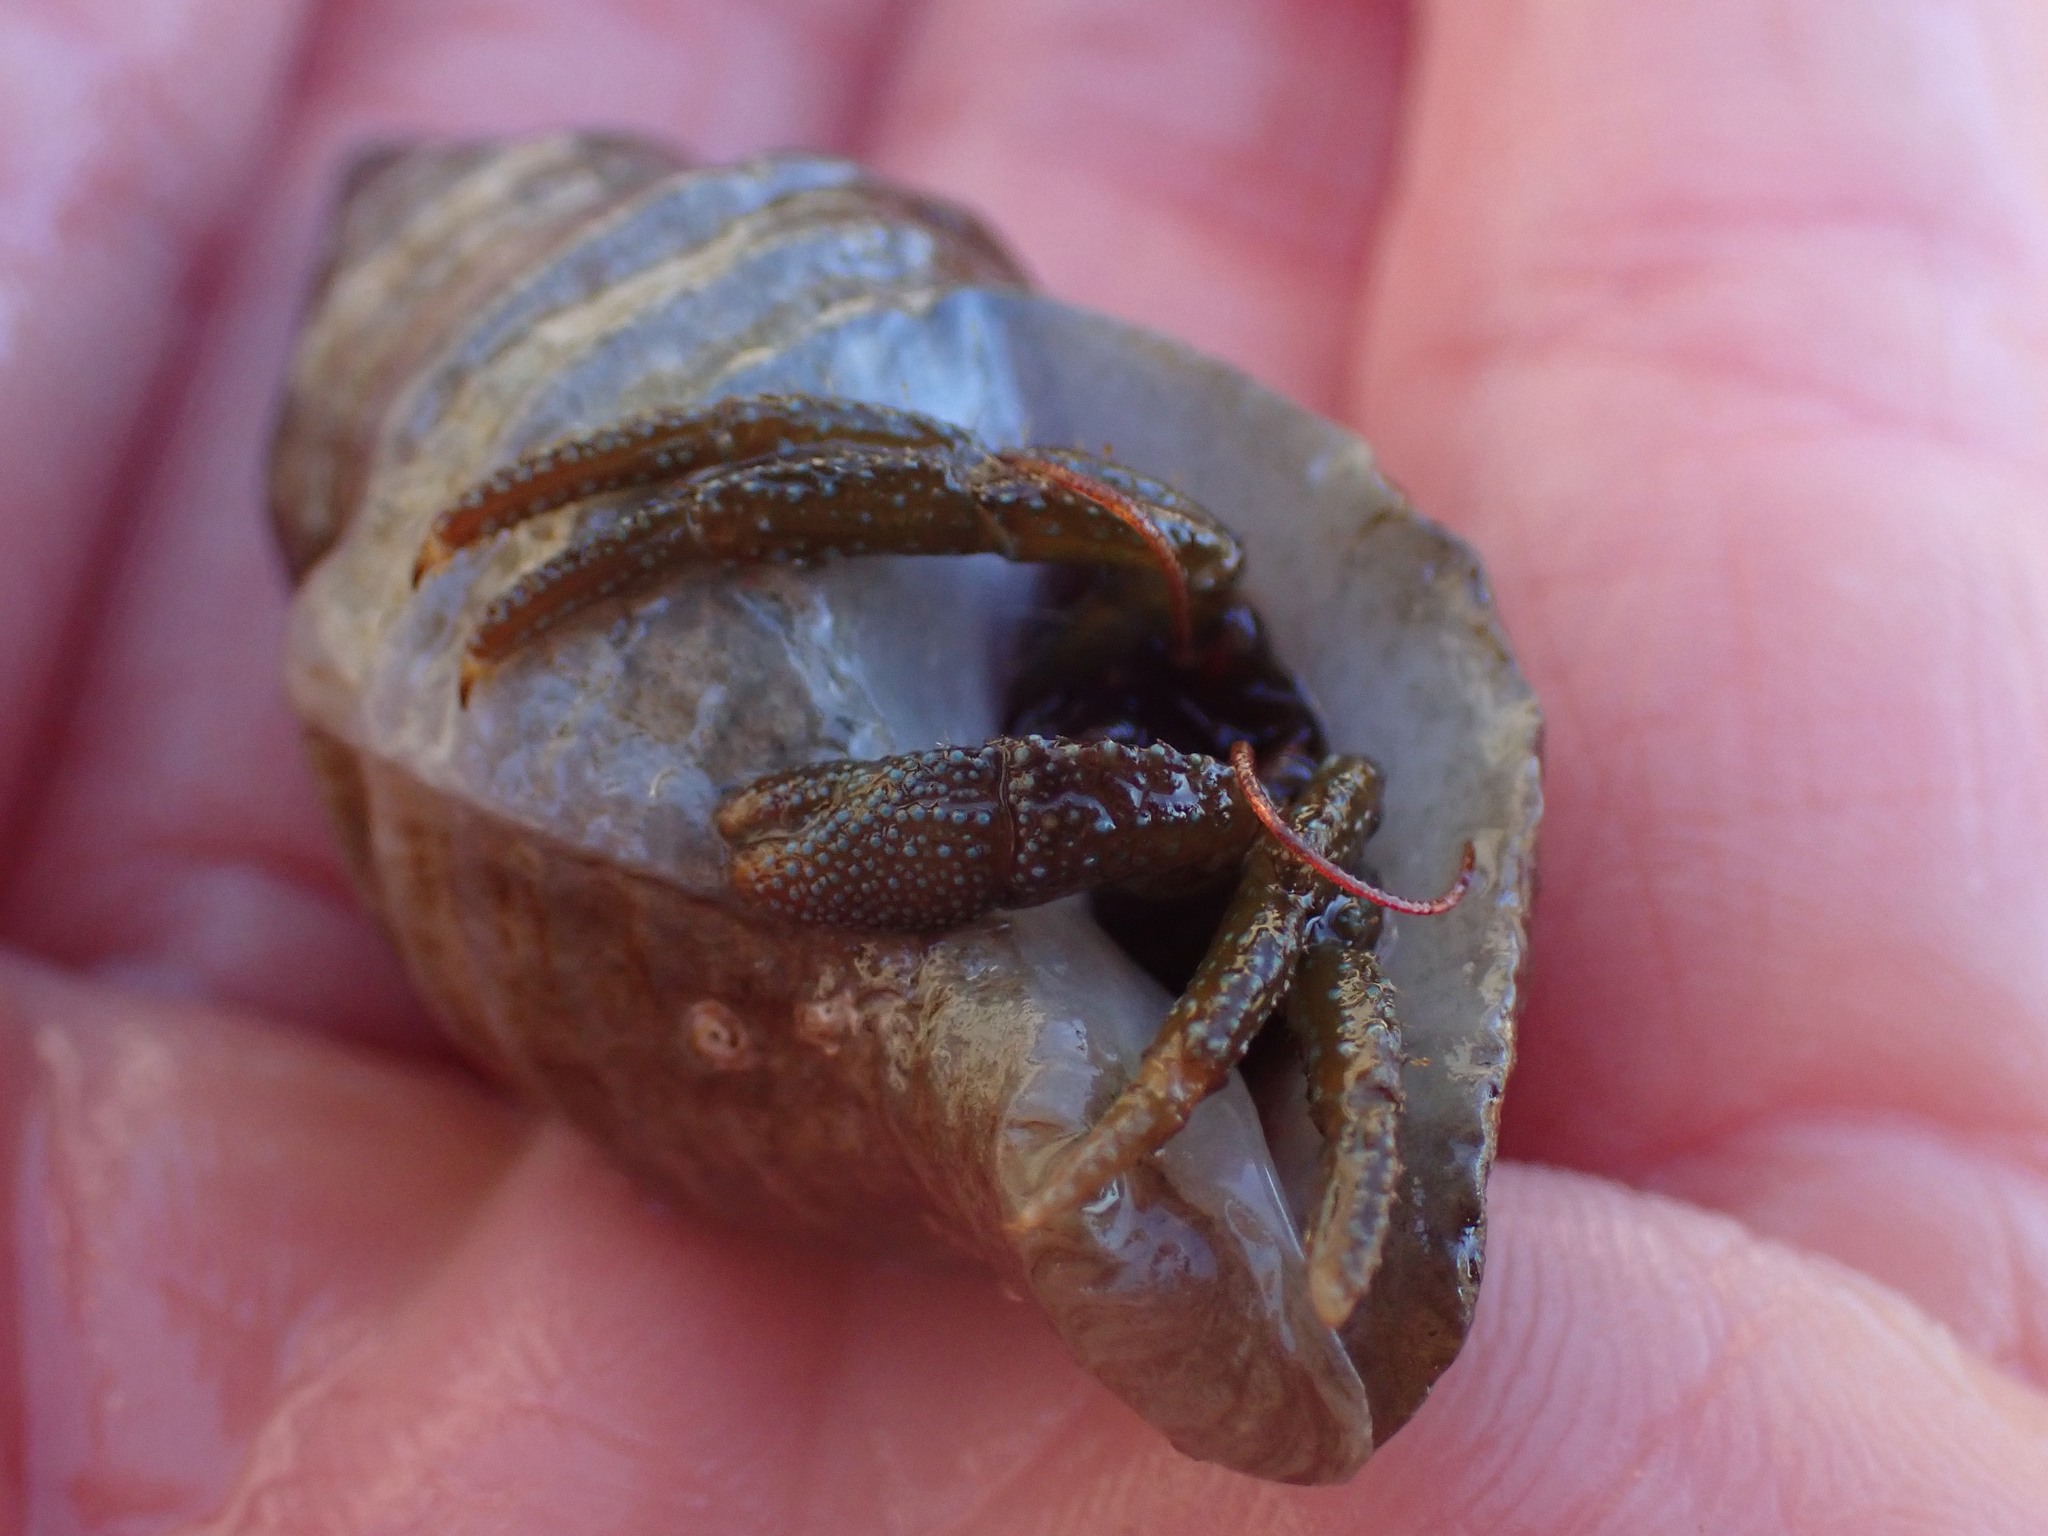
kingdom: Animalia
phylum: Arthropoda
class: Malacostraca
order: Decapoda
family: Paguridae
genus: Pagurus
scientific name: Pagurus granosimanus
